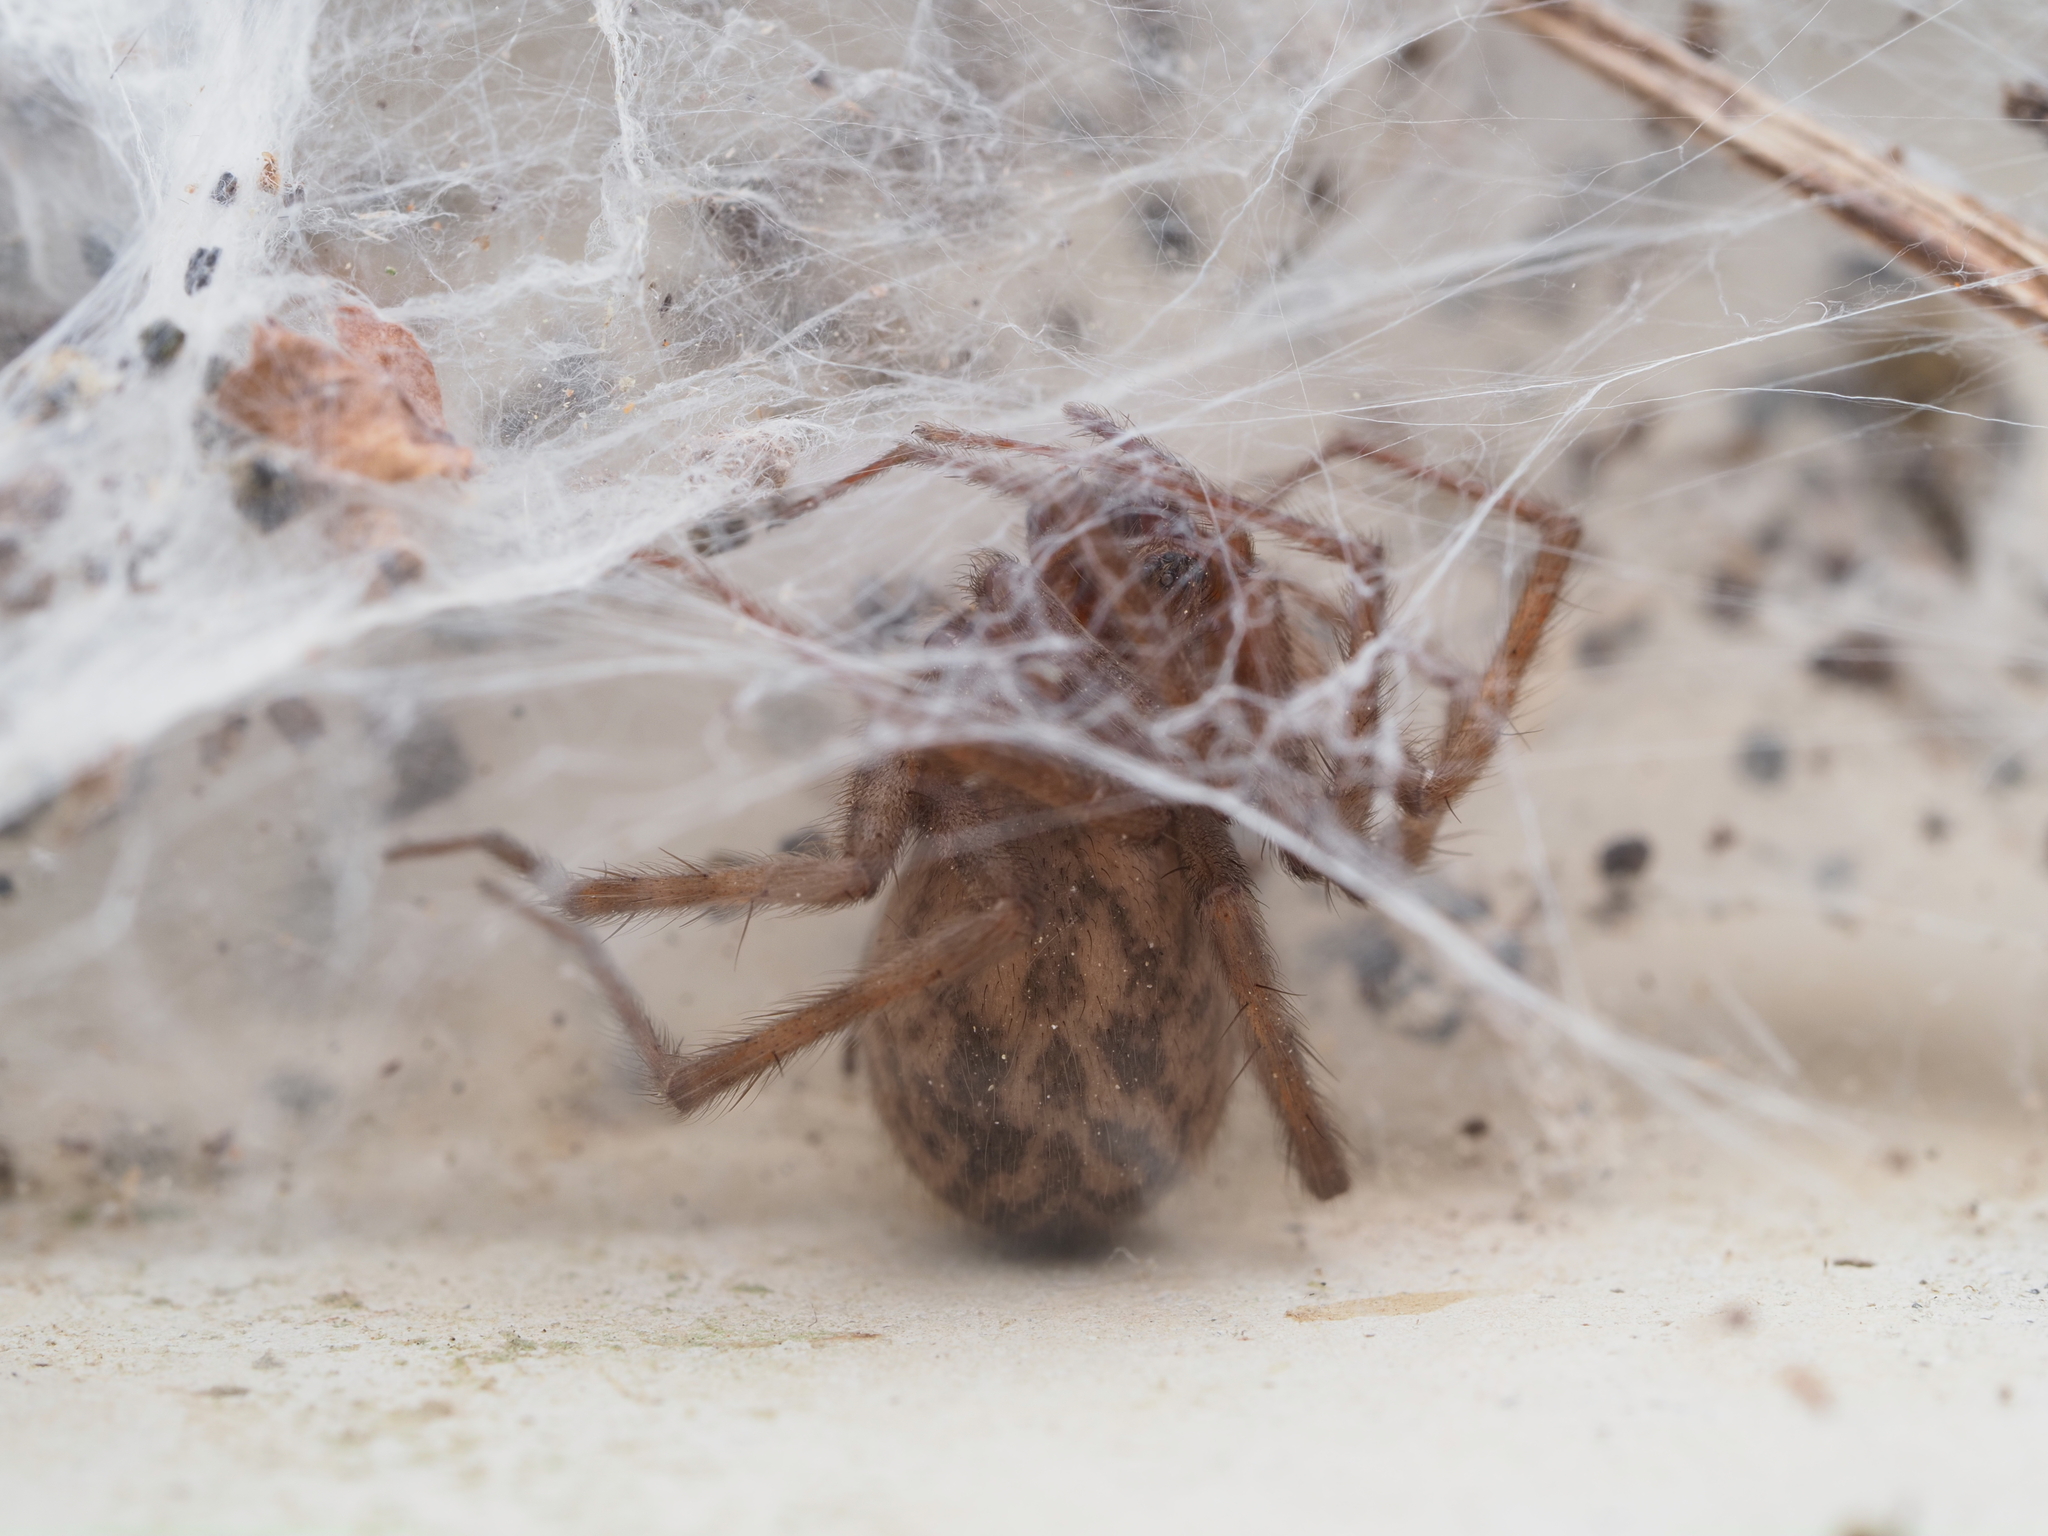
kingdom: Animalia
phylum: Arthropoda
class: Arachnida
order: Araneae
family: Agelenidae
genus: Tegenaria
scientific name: Tegenaria domestica
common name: Barn funnel weaver
